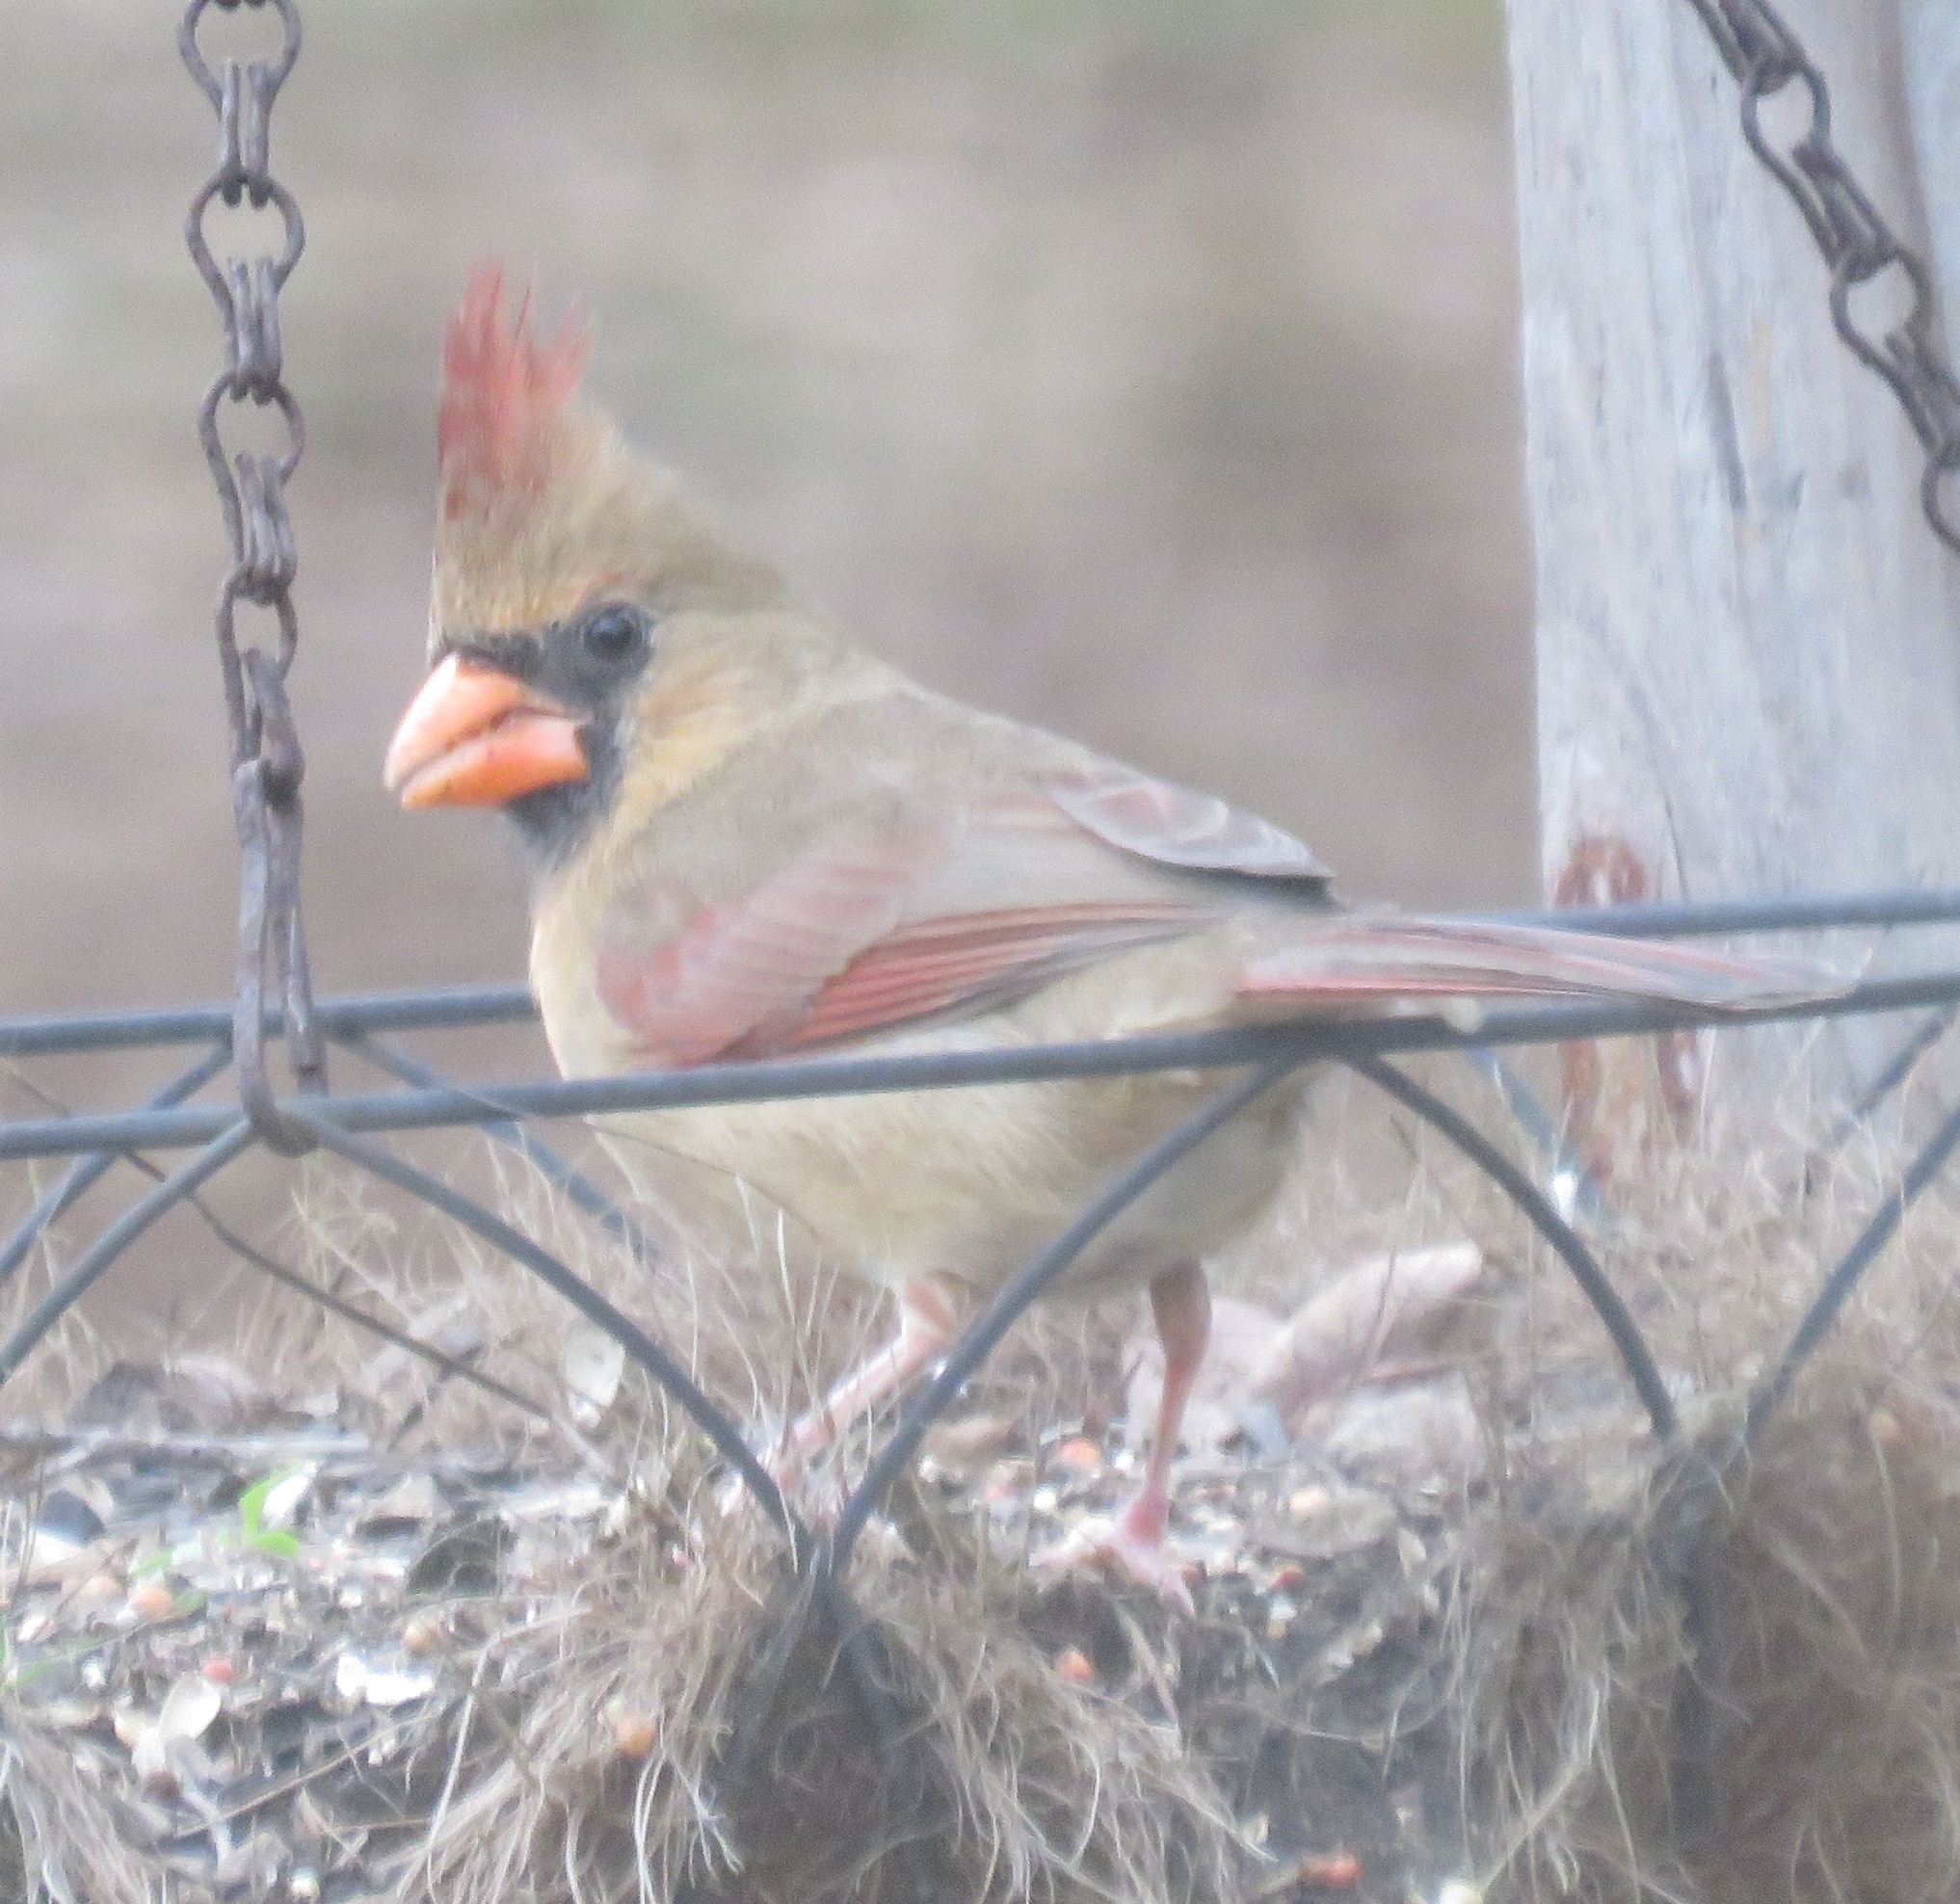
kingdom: Animalia
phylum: Chordata
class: Aves
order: Passeriformes
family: Cardinalidae
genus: Cardinalis
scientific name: Cardinalis cardinalis
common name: Northern cardinal
